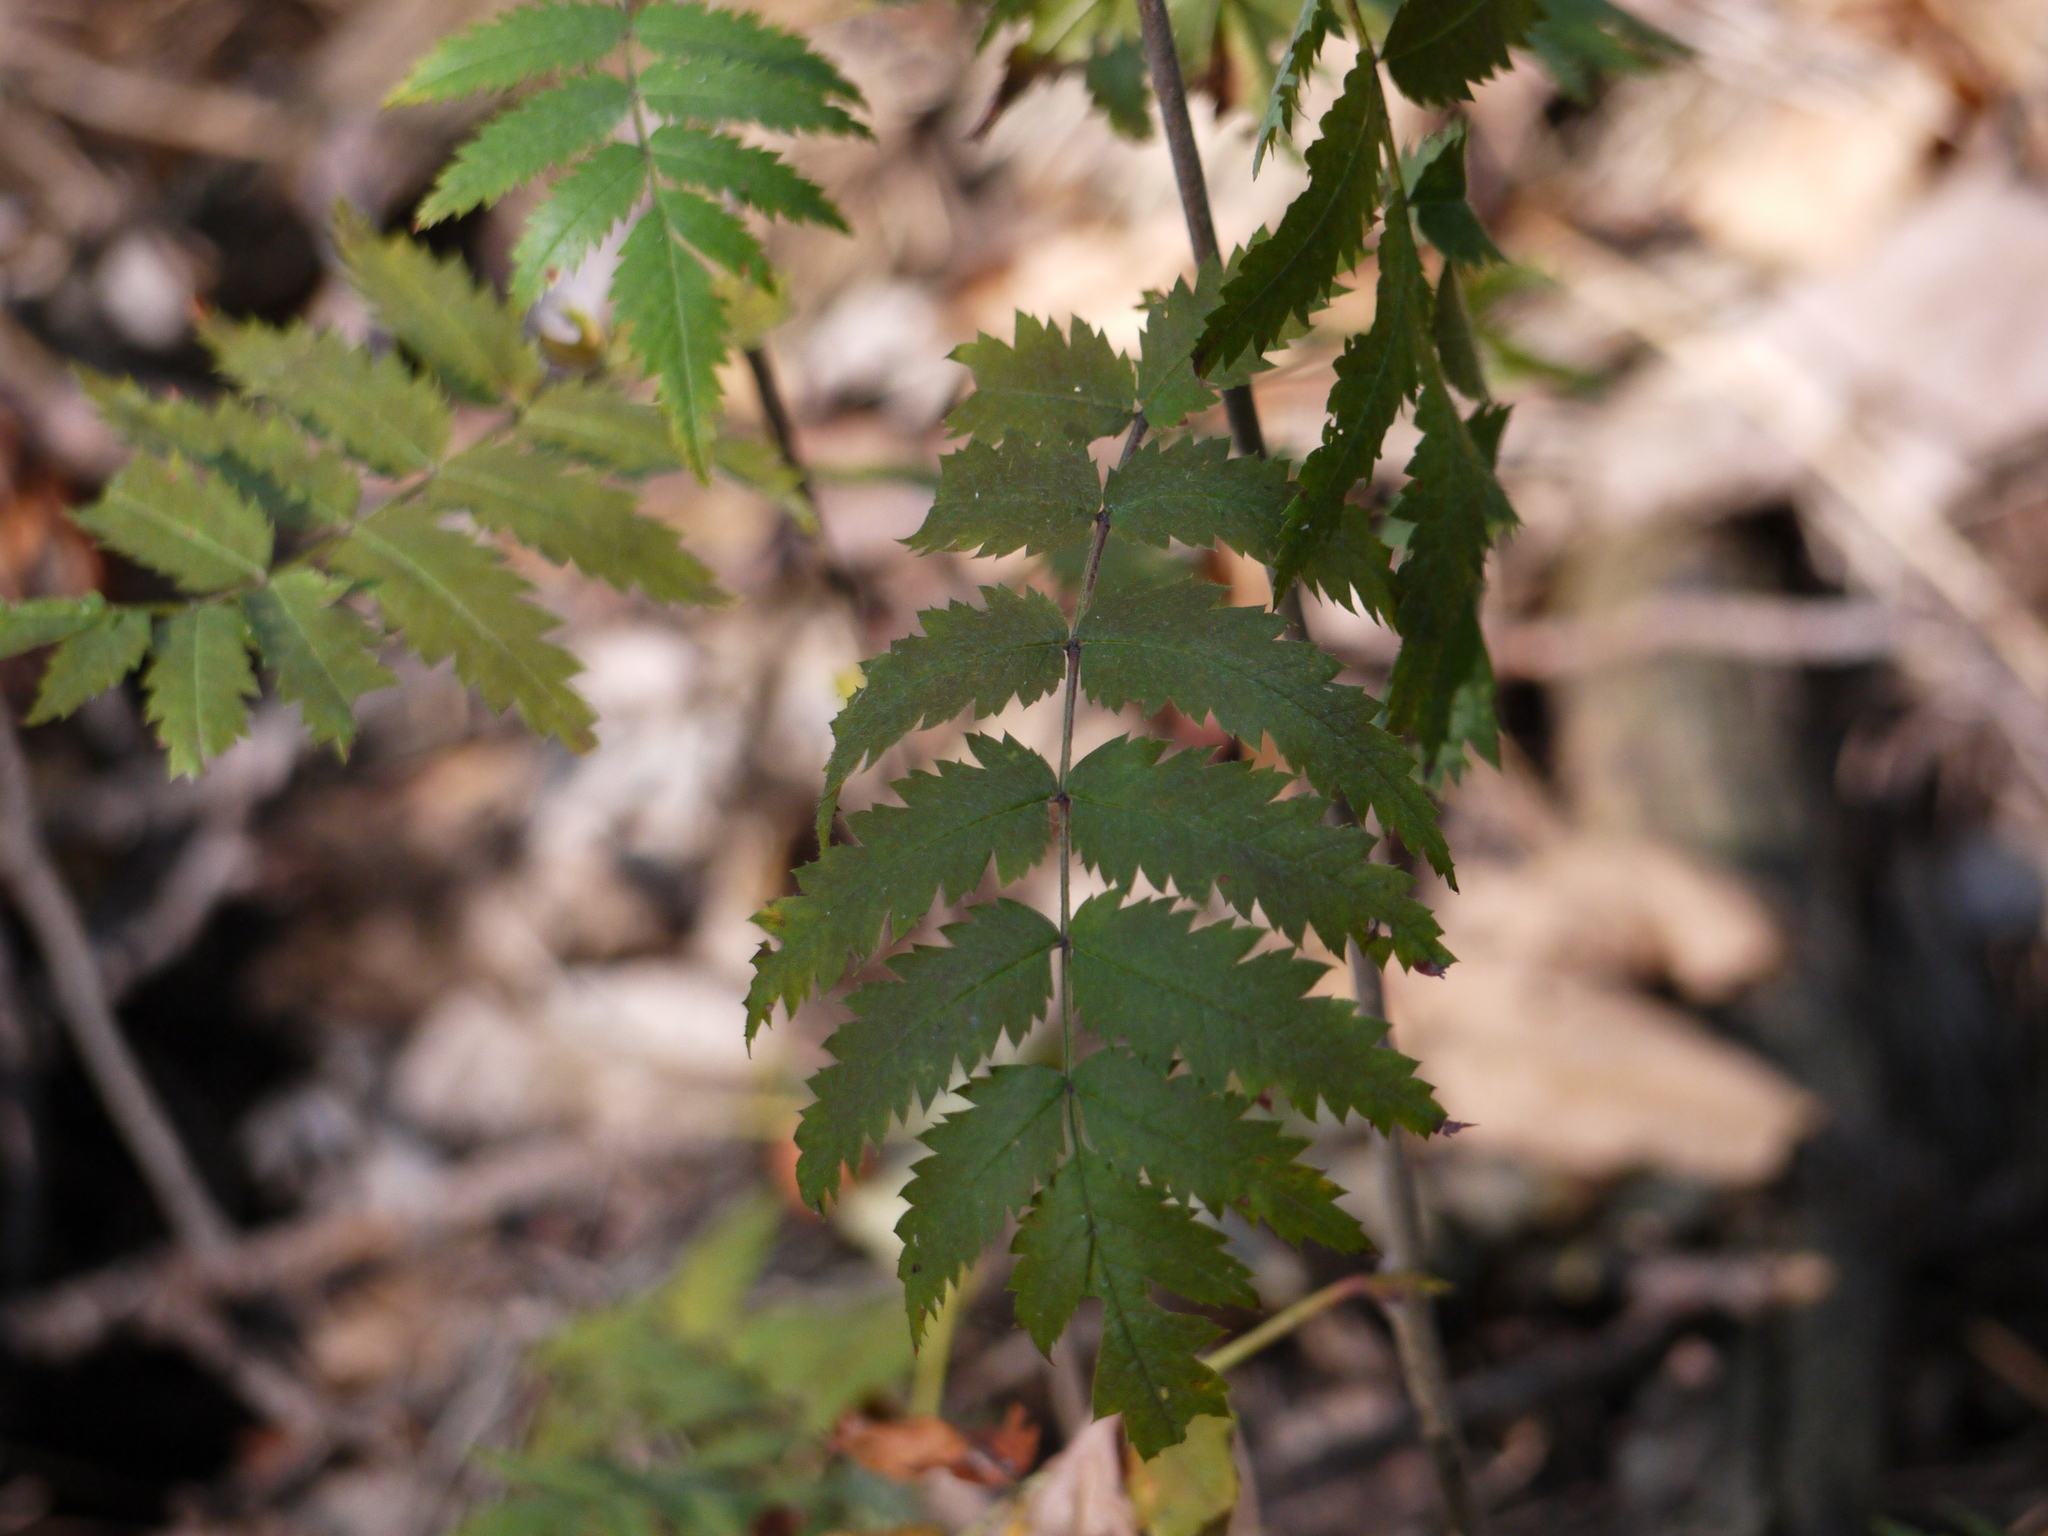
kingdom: Plantae
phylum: Tracheophyta
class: Magnoliopsida
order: Rosales
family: Rosaceae
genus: Sorbus
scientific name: Sorbus aucuparia
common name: Rowan
